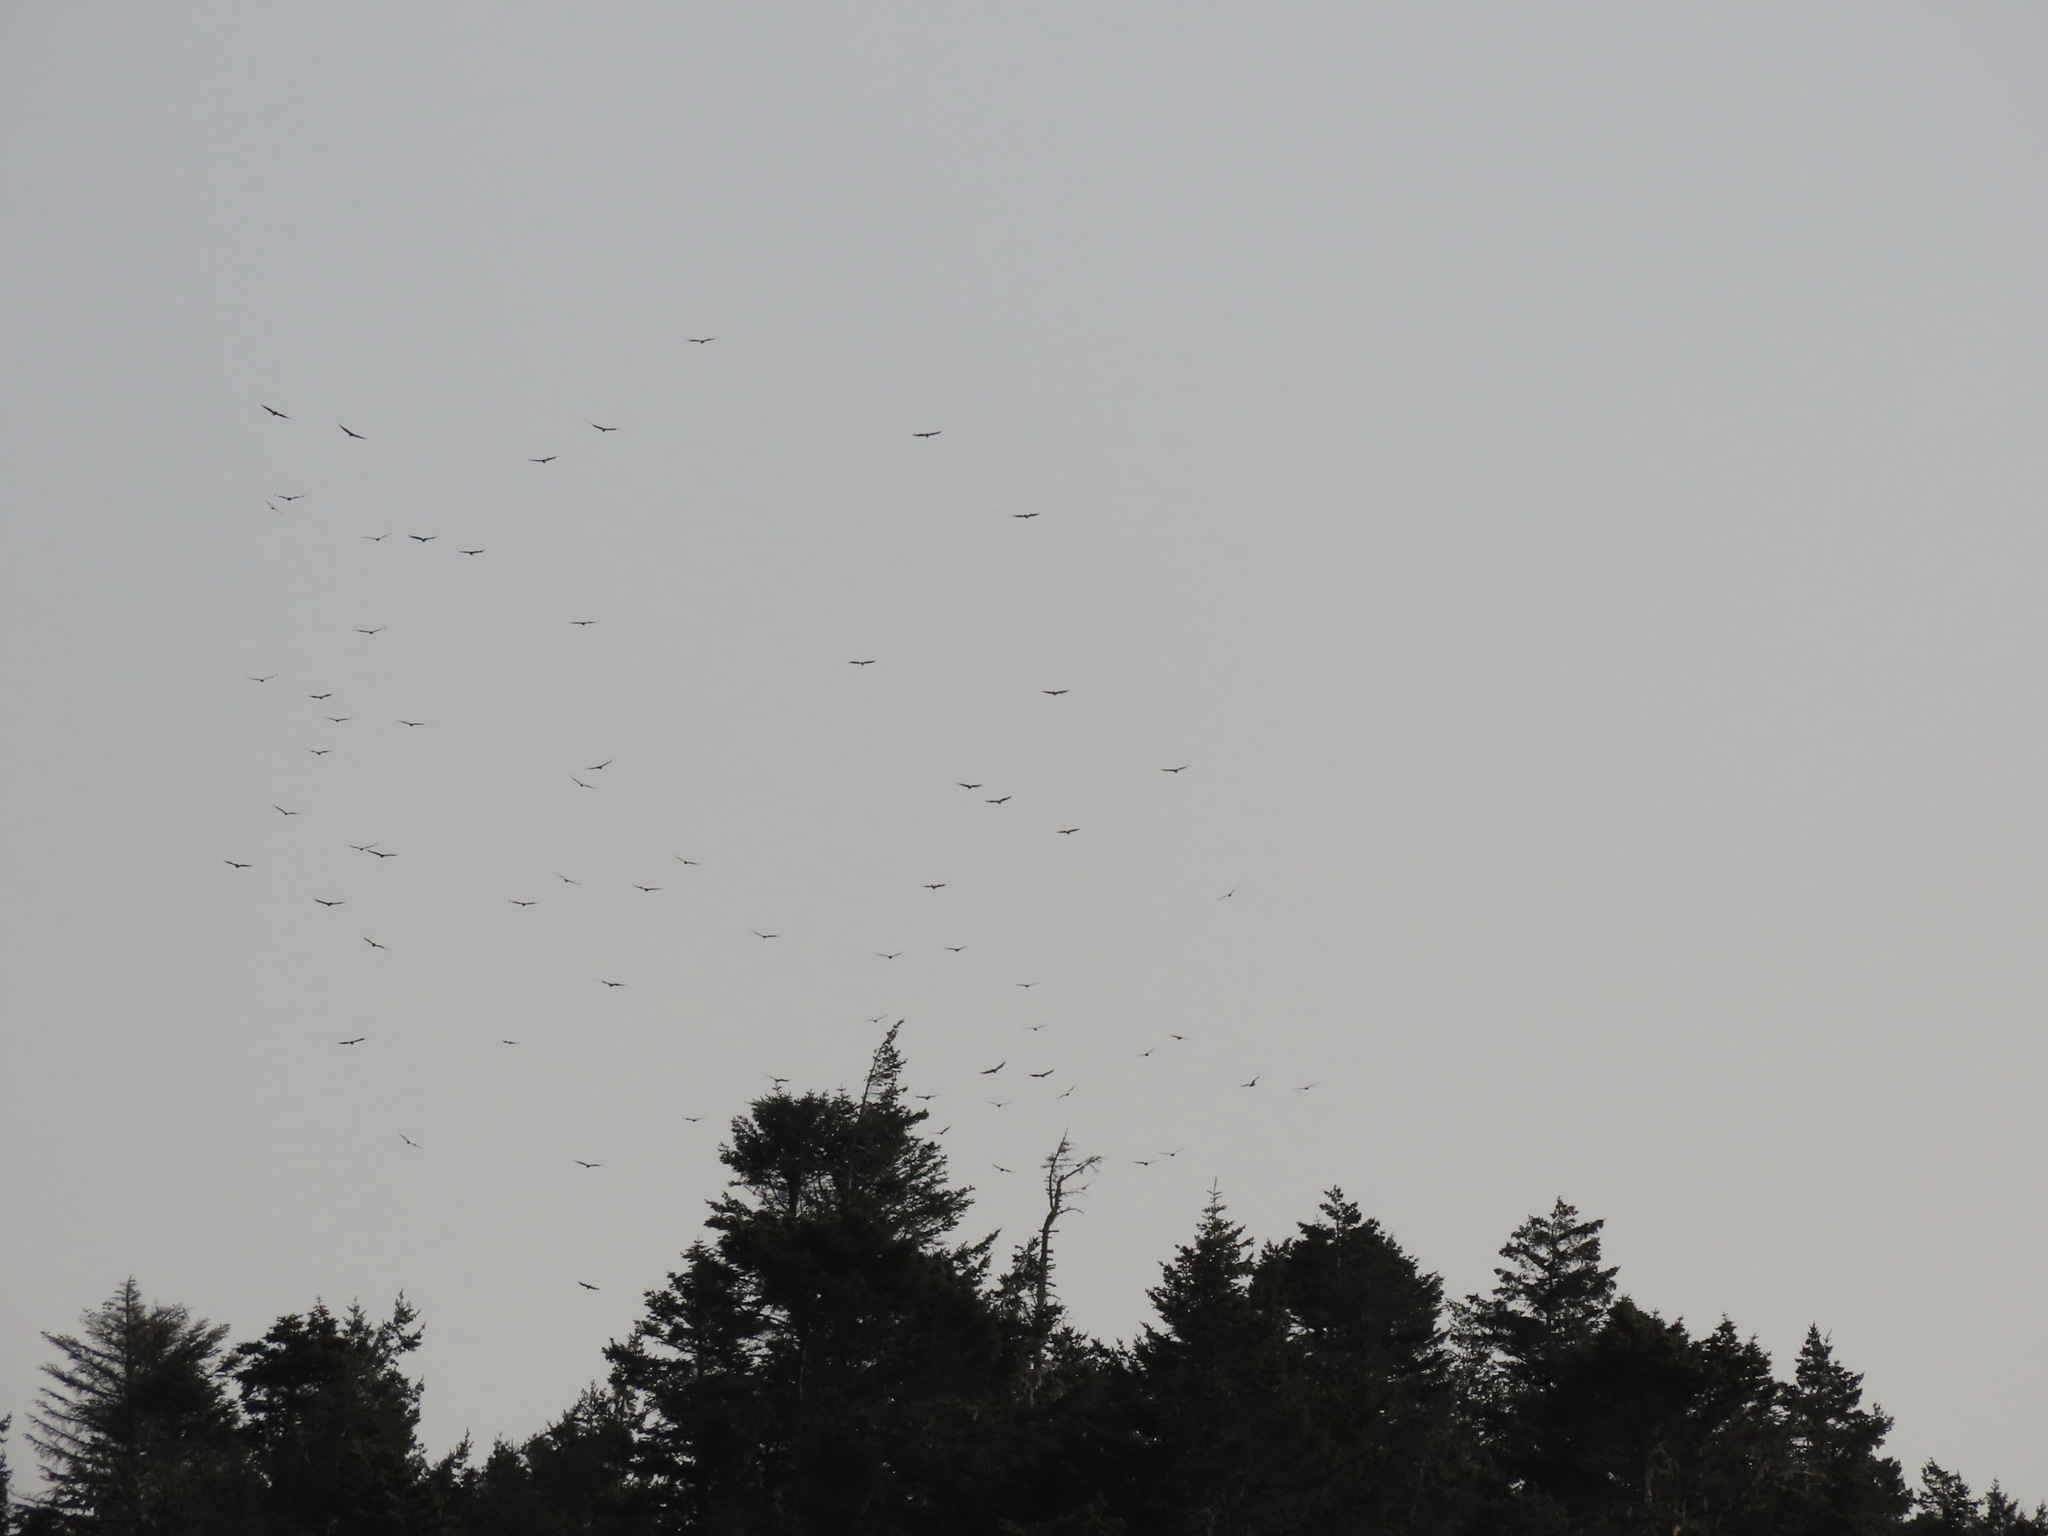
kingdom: Animalia
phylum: Chordata
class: Aves
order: Accipitriformes
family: Cathartidae
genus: Cathartes
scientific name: Cathartes aura
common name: Turkey vulture
